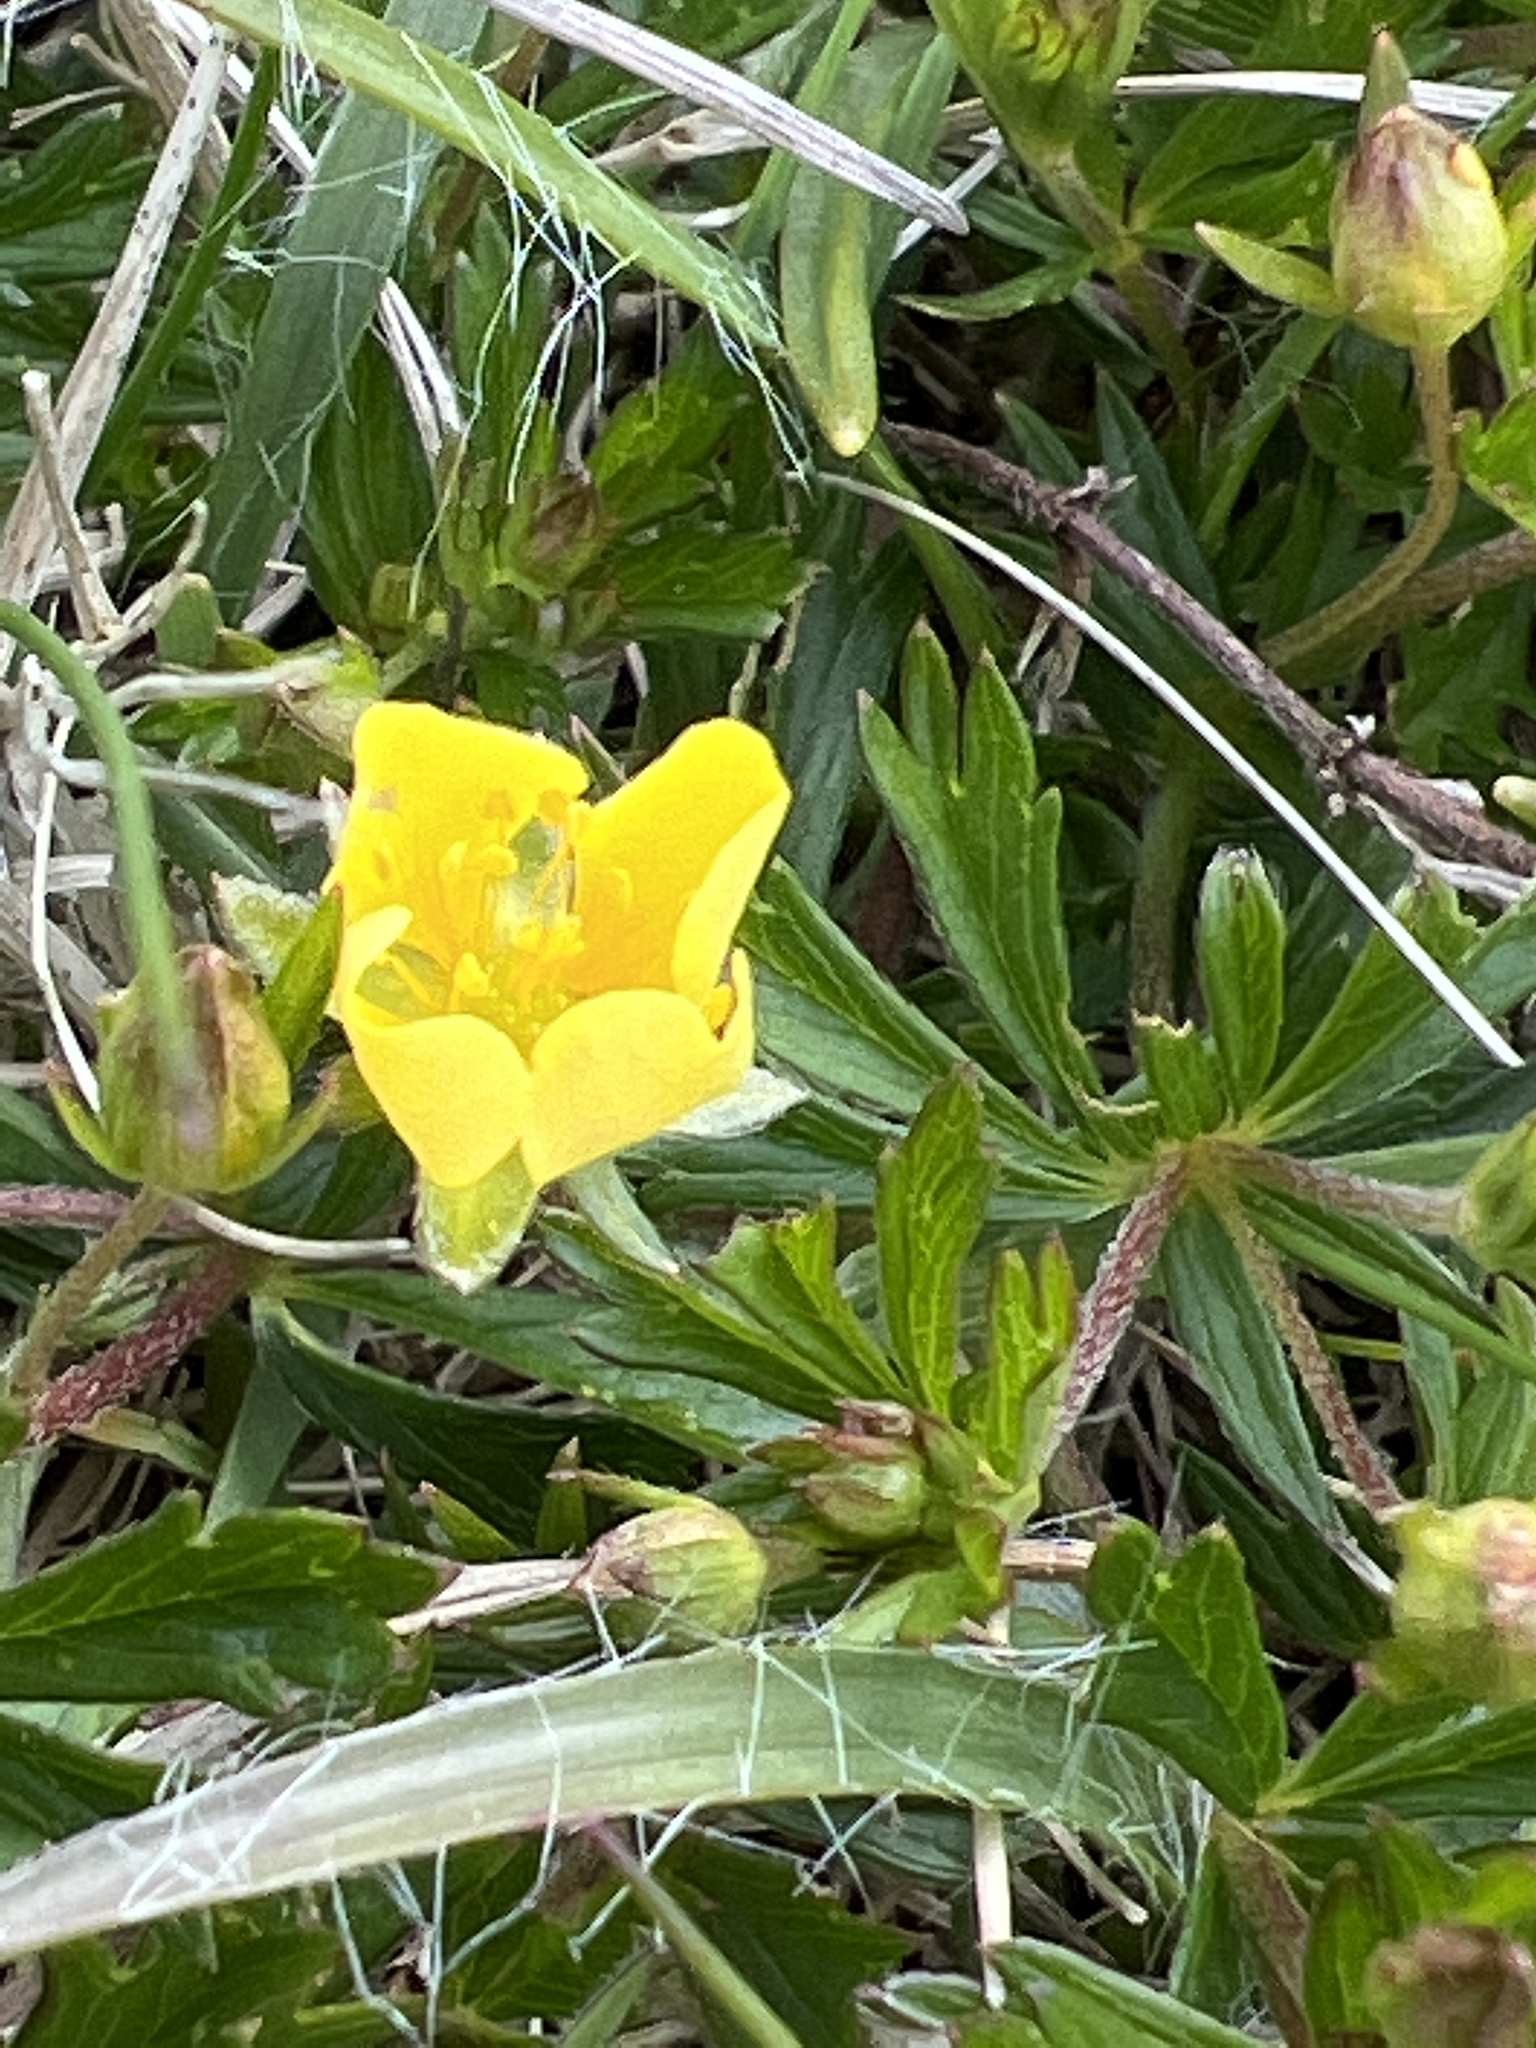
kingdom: Plantae
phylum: Tracheophyta
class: Magnoliopsida
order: Rosales
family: Rosaceae
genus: Potentilla
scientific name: Potentilla erecta
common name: Tormentil
